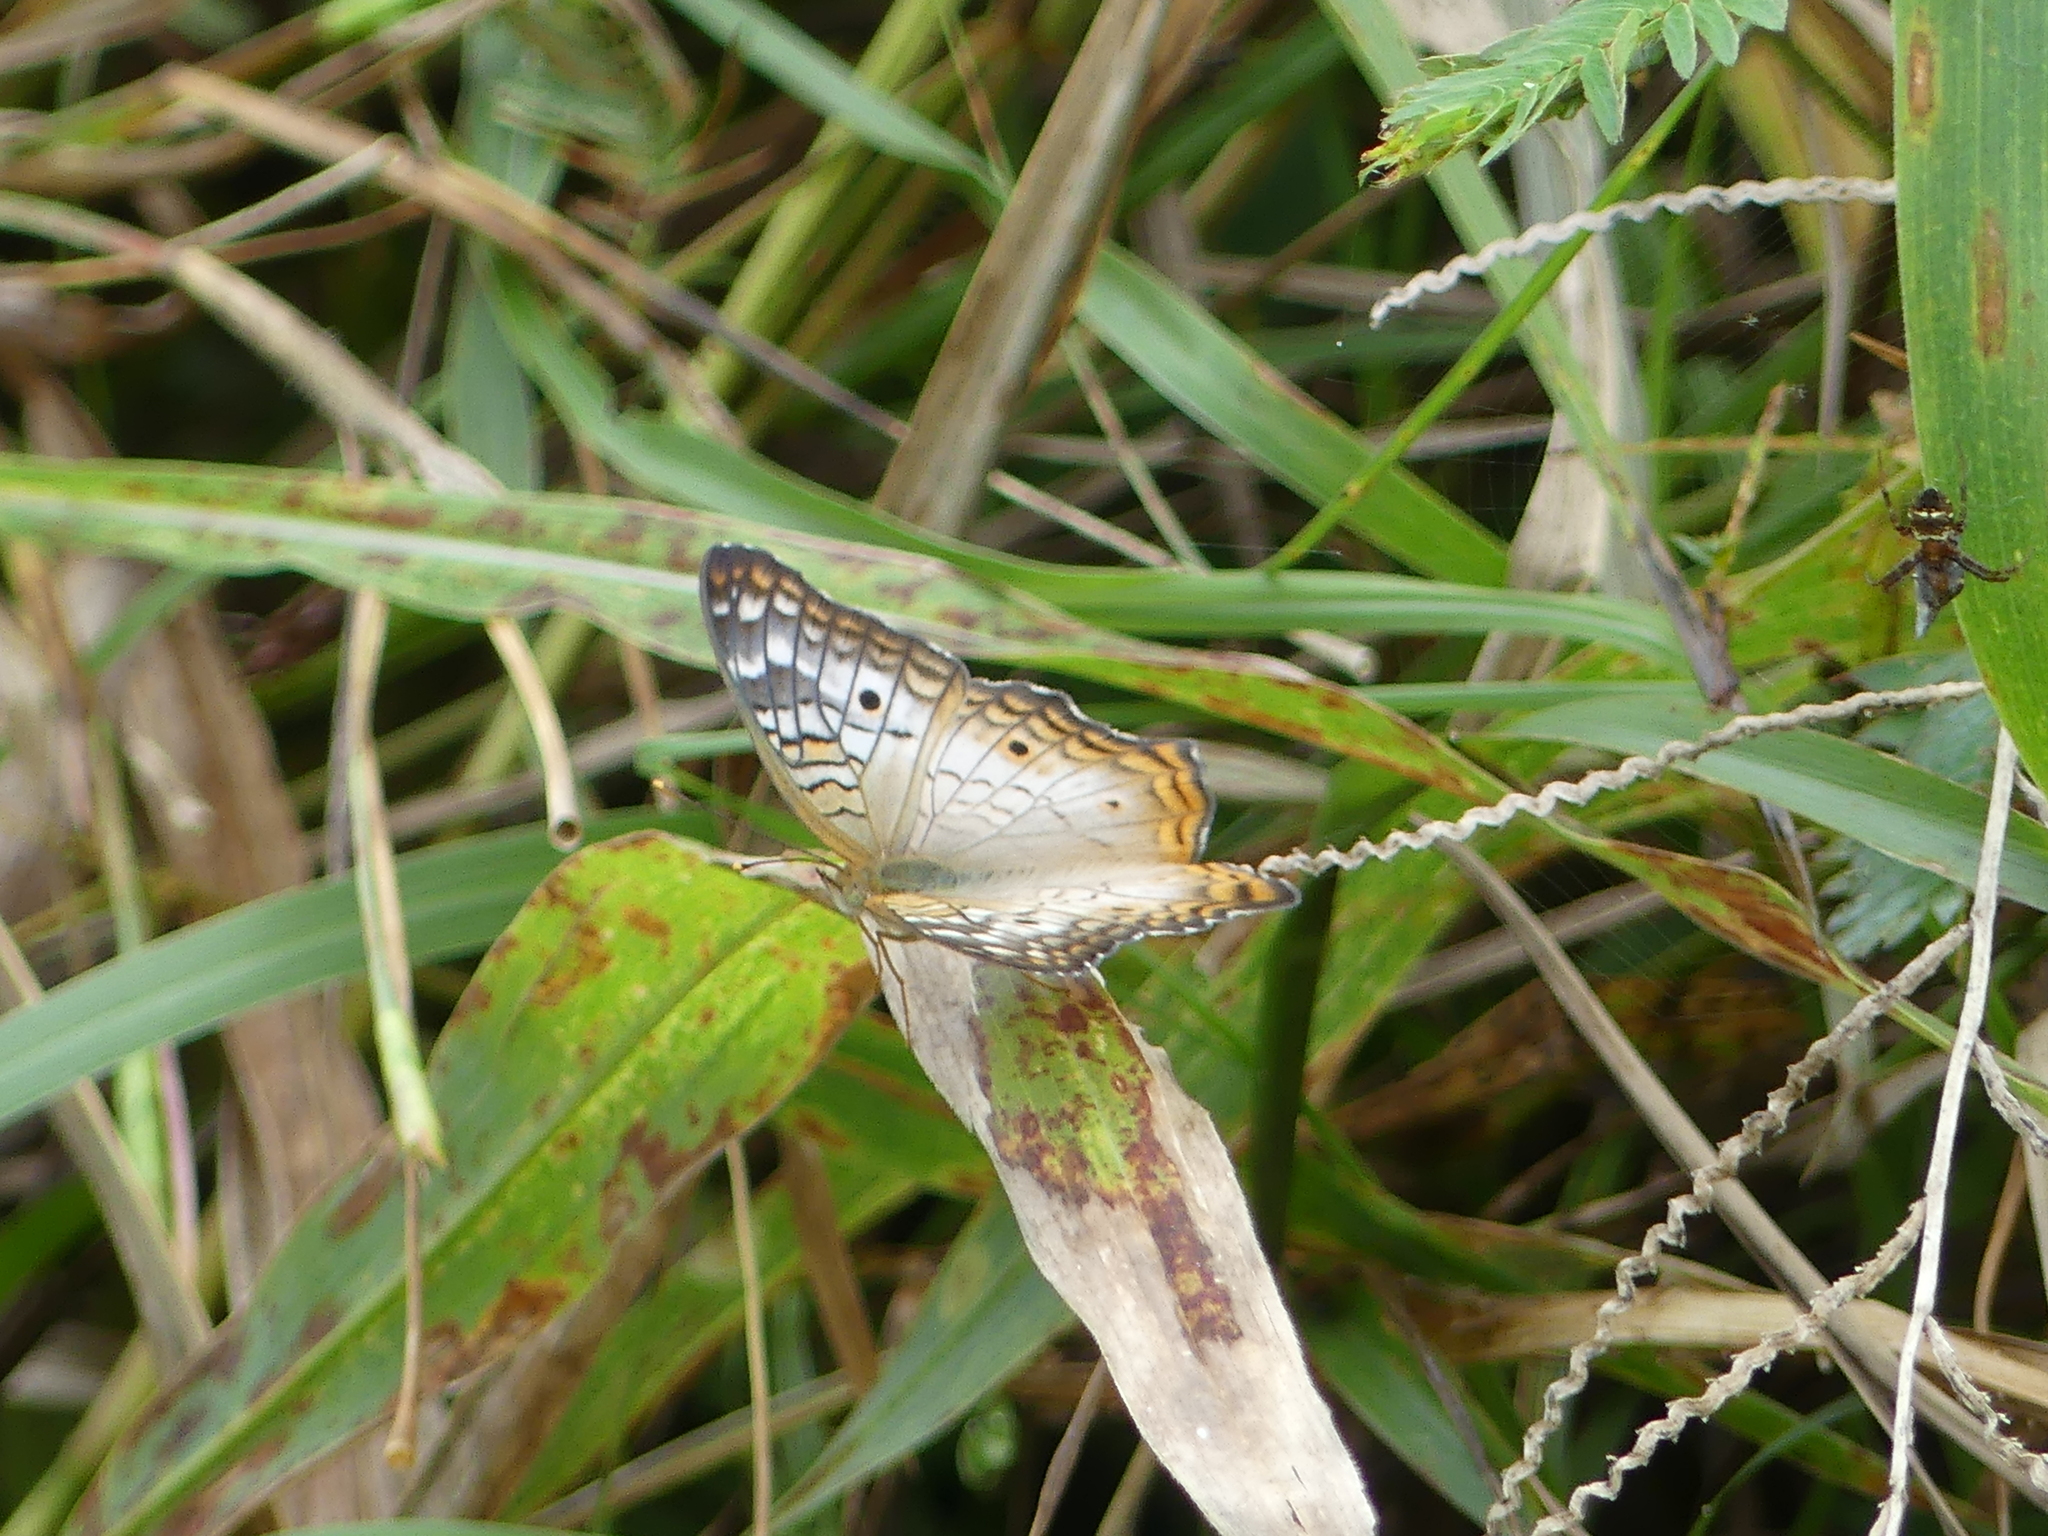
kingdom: Animalia
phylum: Arthropoda
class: Insecta
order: Lepidoptera
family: Nymphalidae
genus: Anartia
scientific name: Anartia jatrophae
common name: White peacock
